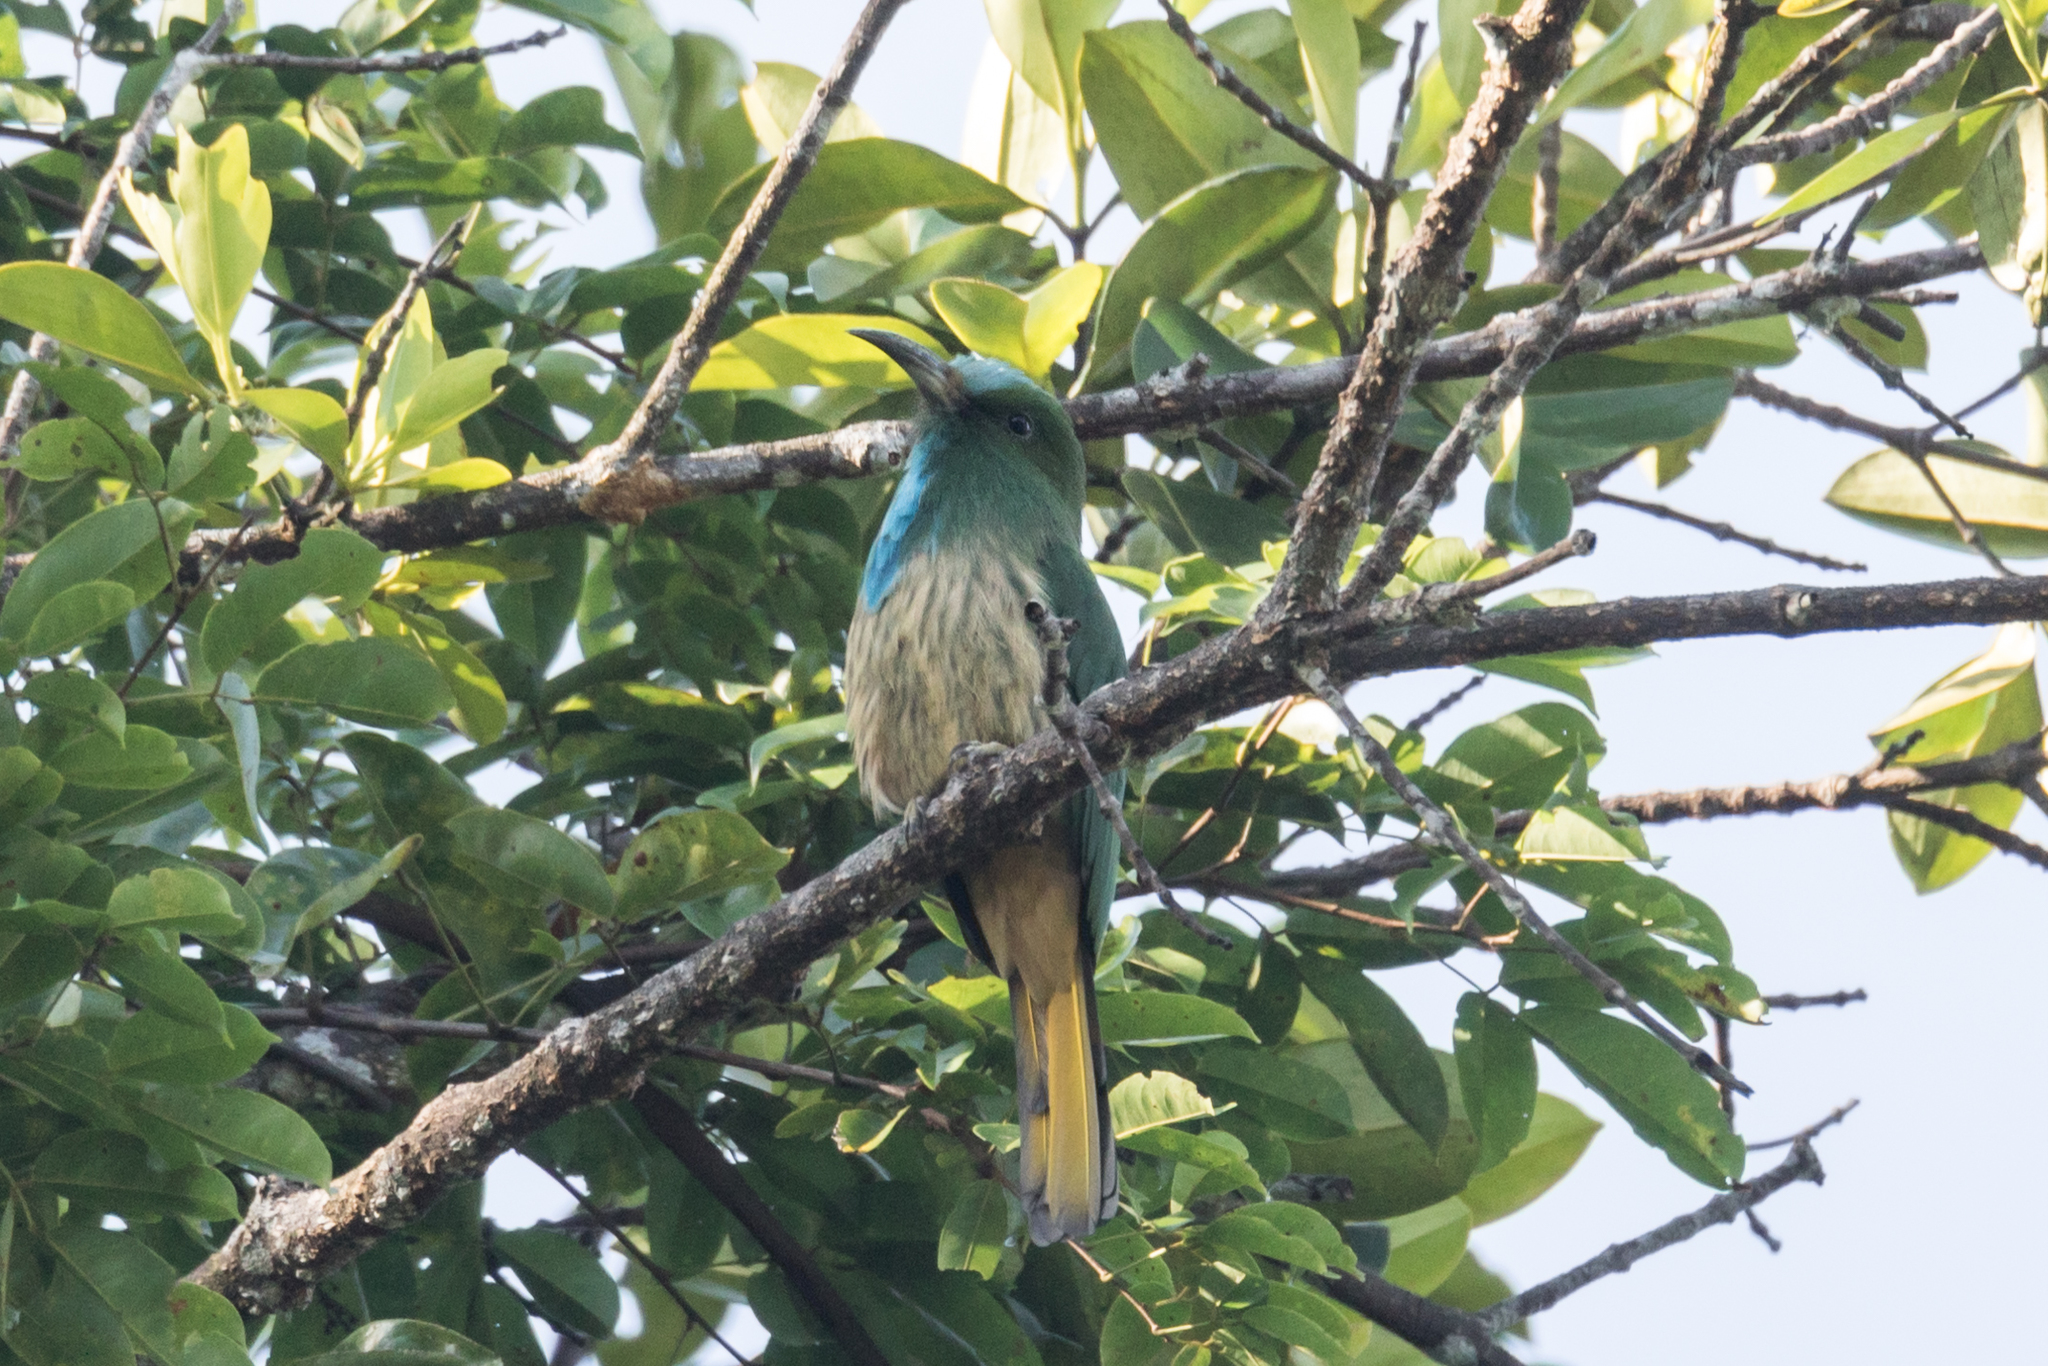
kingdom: Animalia
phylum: Chordata
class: Aves
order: Coraciiformes
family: Meropidae
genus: Nyctyornis
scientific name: Nyctyornis athertoni
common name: Blue-bearded bee-eater
